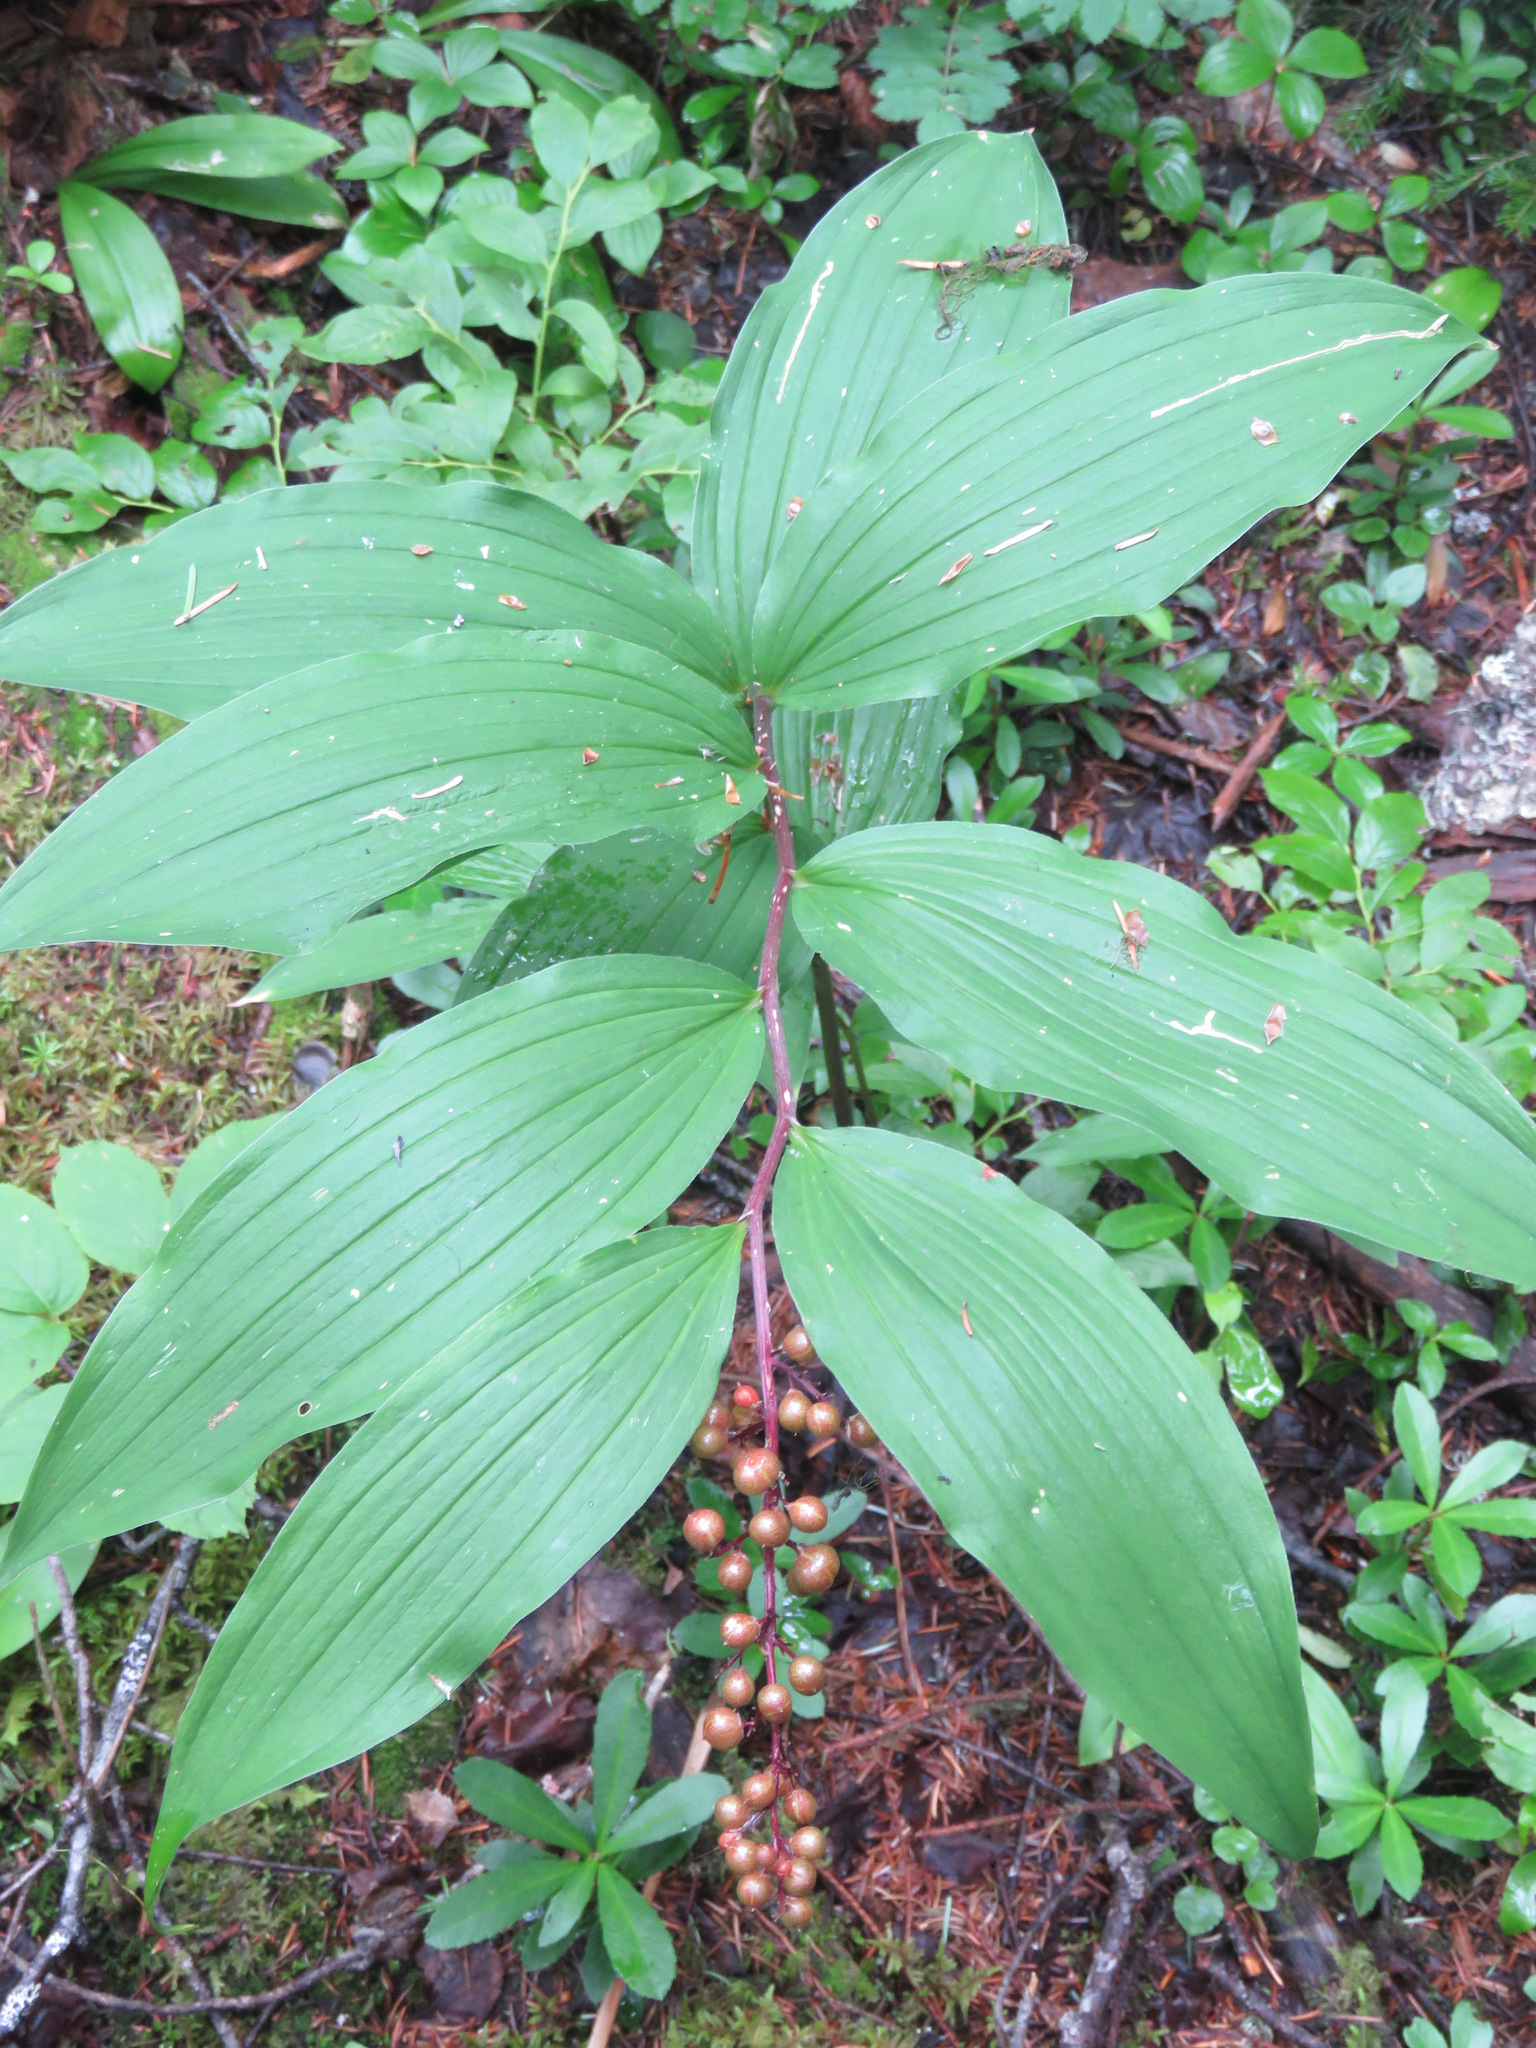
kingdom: Plantae
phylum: Tracheophyta
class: Liliopsida
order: Asparagales
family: Asparagaceae
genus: Maianthemum
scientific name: Maianthemum racemosum
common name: False spikenard
